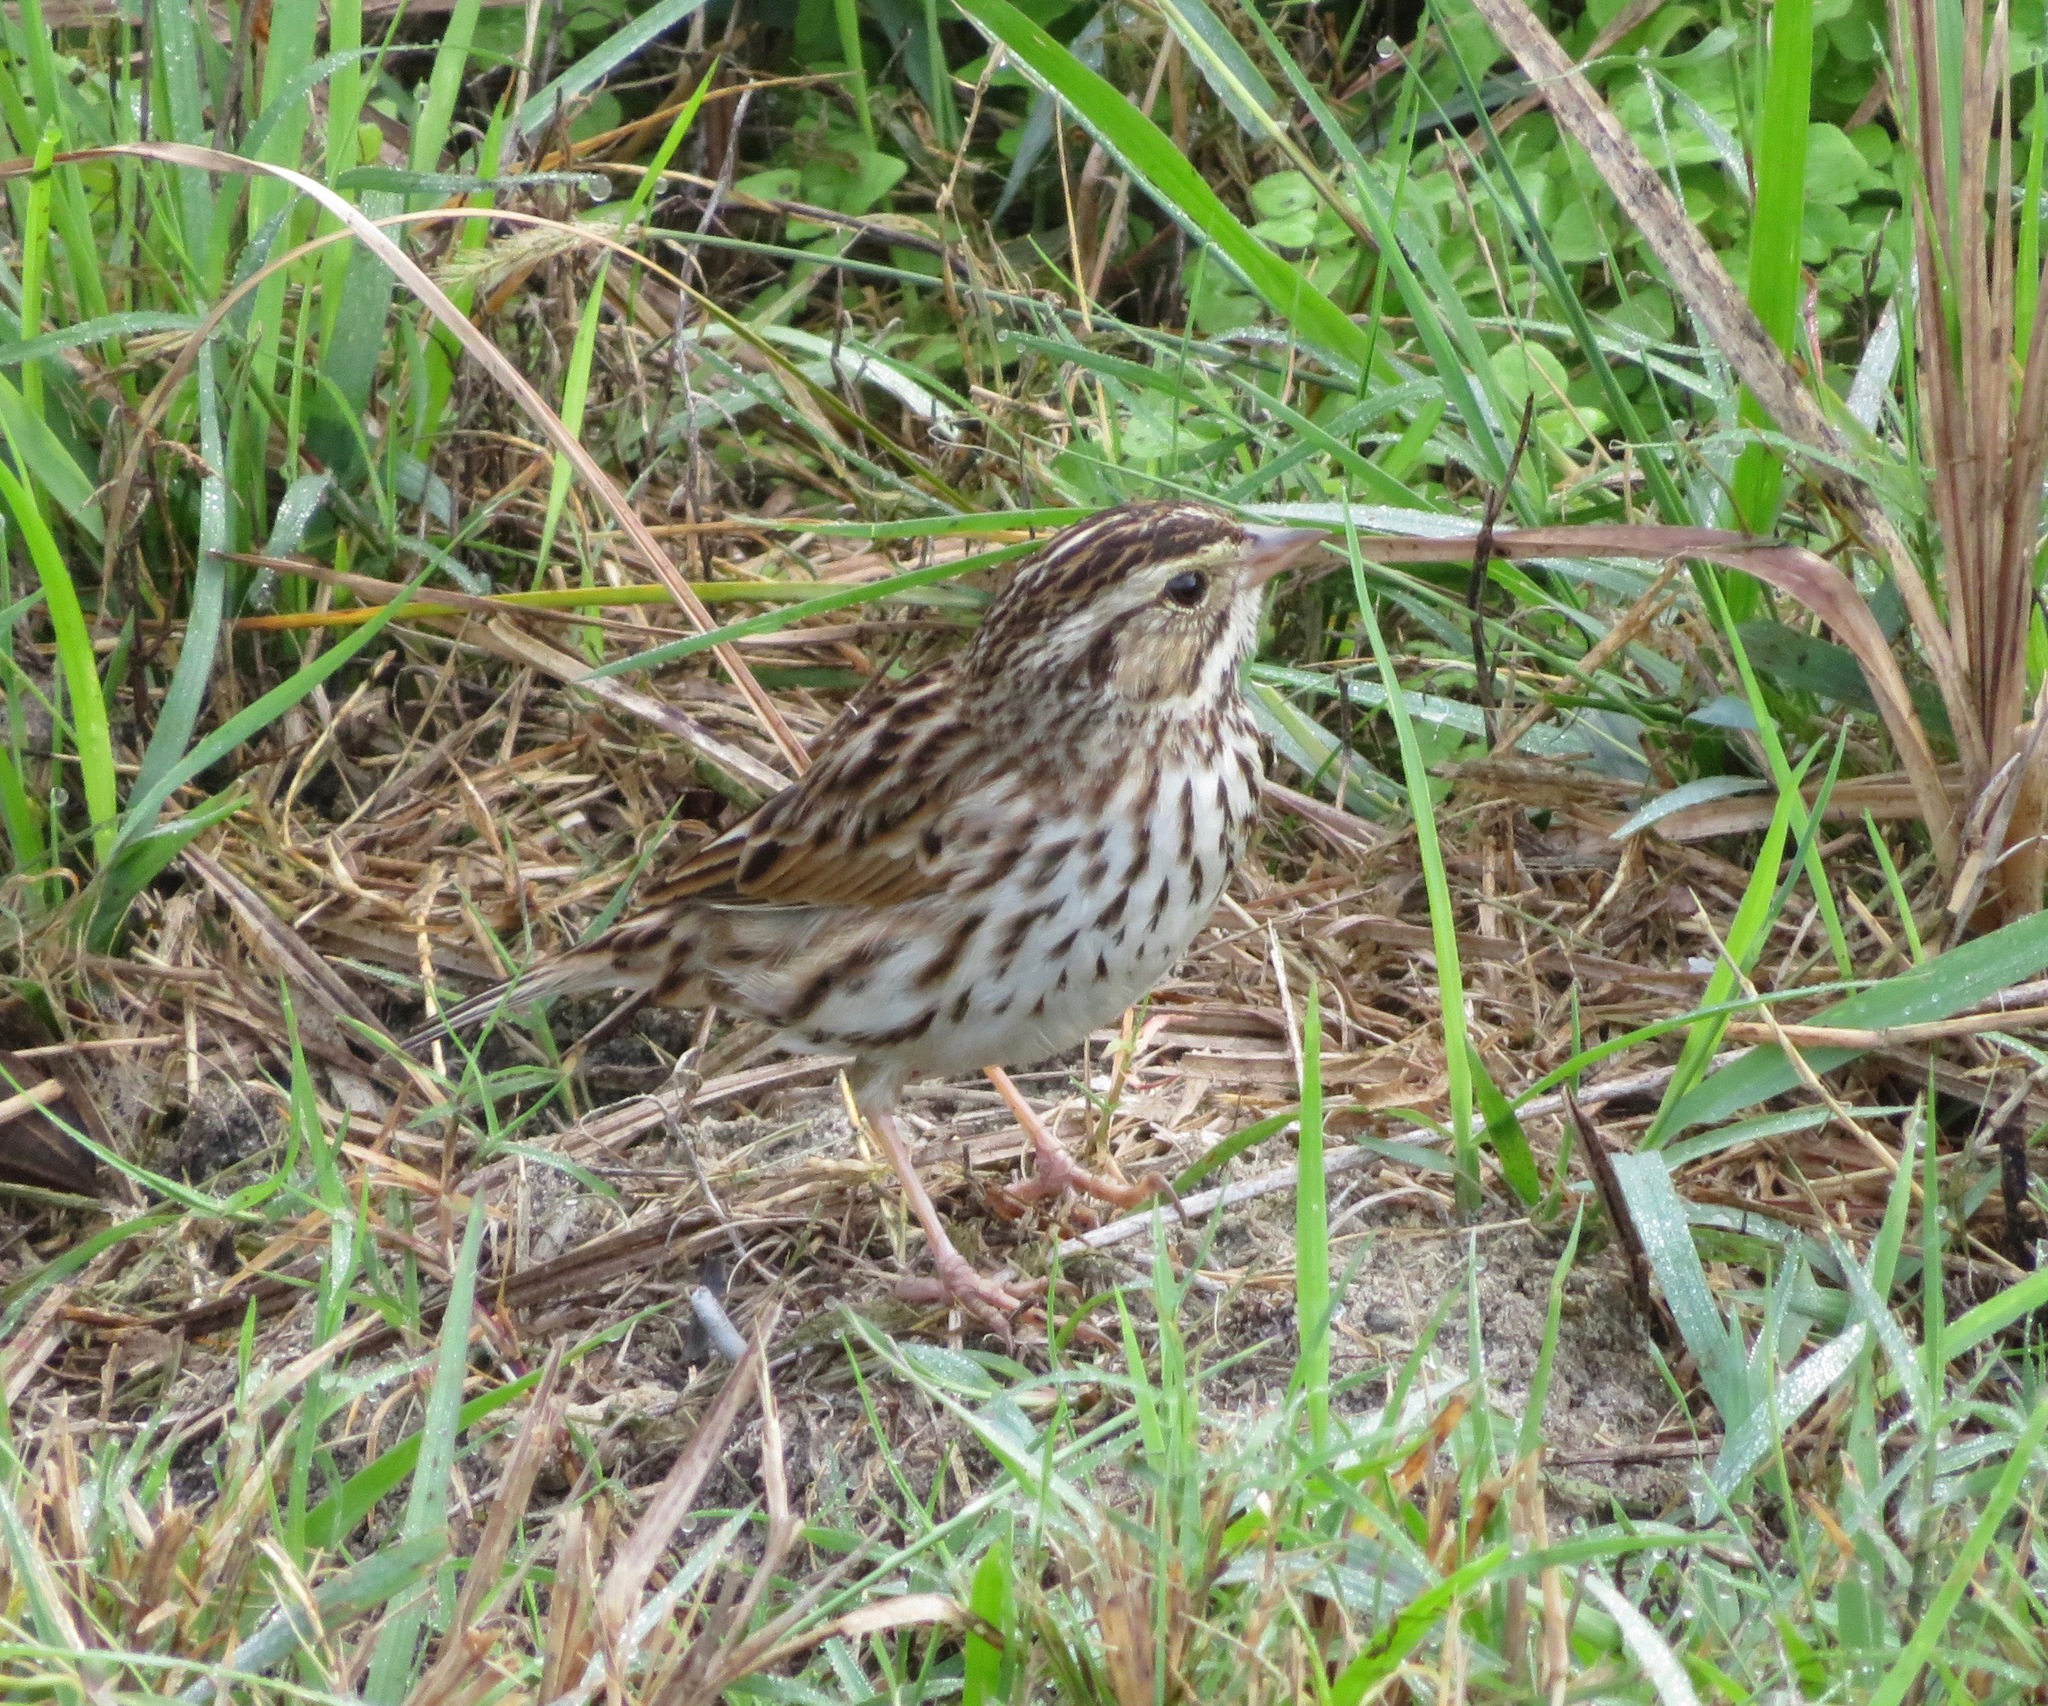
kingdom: Animalia
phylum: Chordata
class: Aves
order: Passeriformes
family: Passerellidae
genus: Passerculus
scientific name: Passerculus sandwichensis
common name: Savannah sparrow
